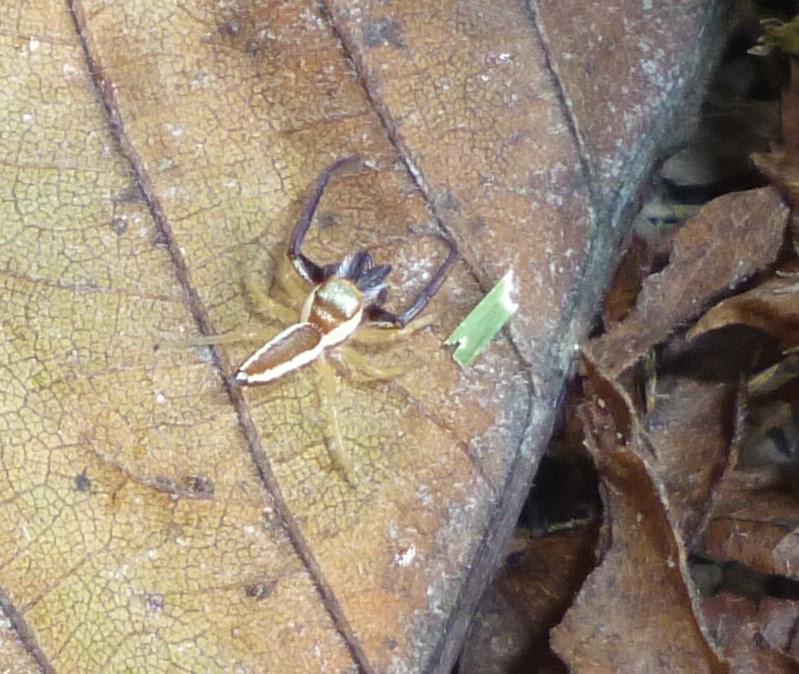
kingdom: Animalia
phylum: Arthropoda
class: Arachnida
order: Araneae
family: Salticidae
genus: Hentzia
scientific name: Hentzia palmarum
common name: Common hentz jumping spider
